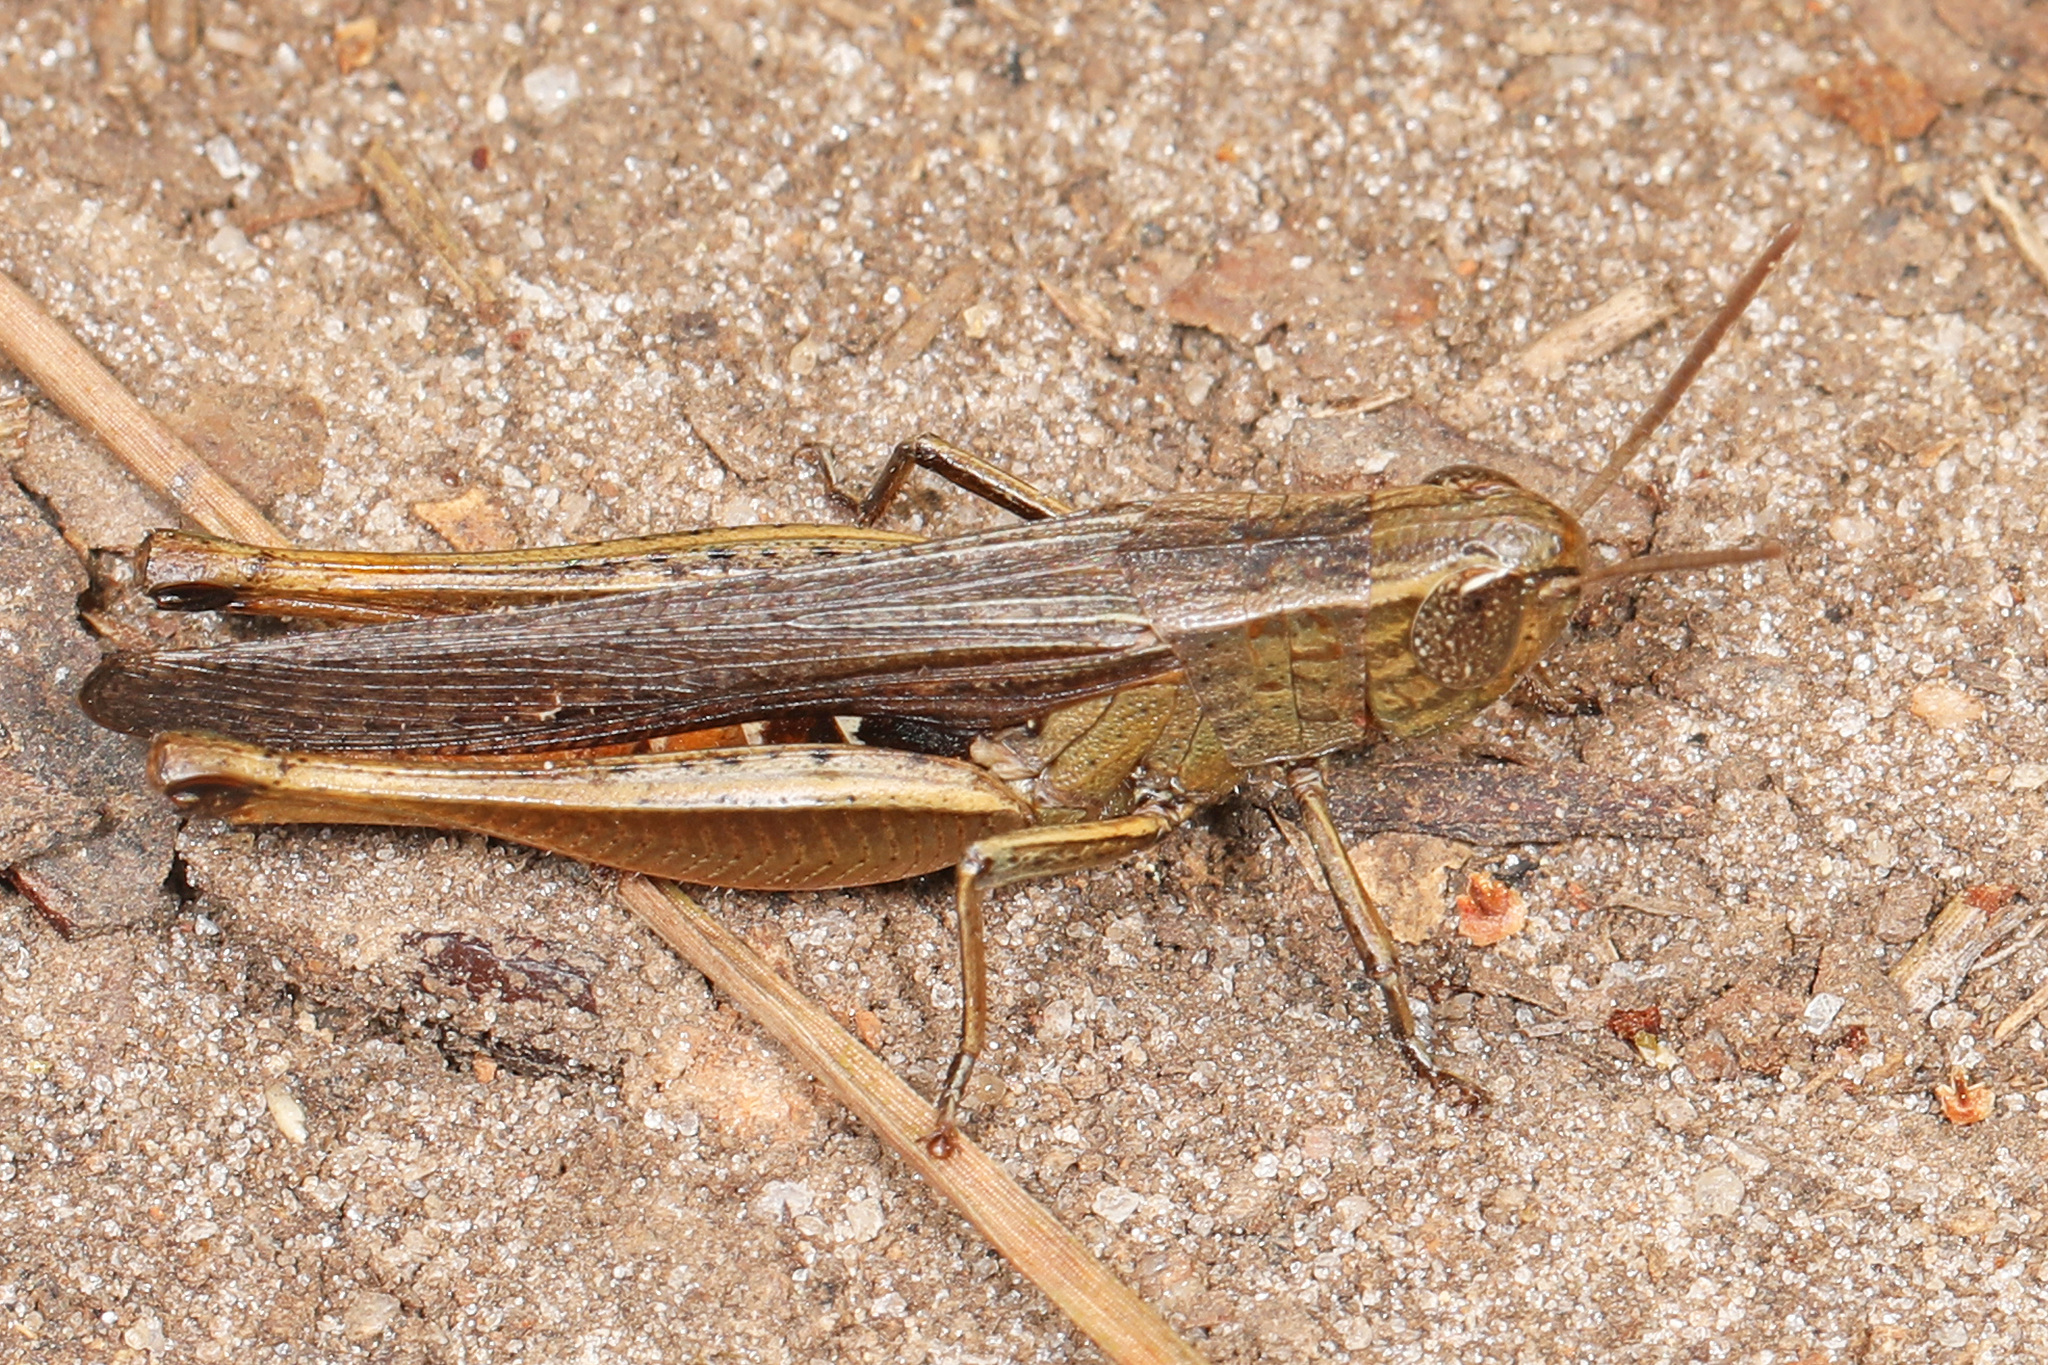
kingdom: Animalia
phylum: Arthropoda
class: Insecta
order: Orthoptera
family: Acrididae
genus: Amblytropidia
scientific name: Amblytropidia mysteca
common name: Brown winter grasshopper
